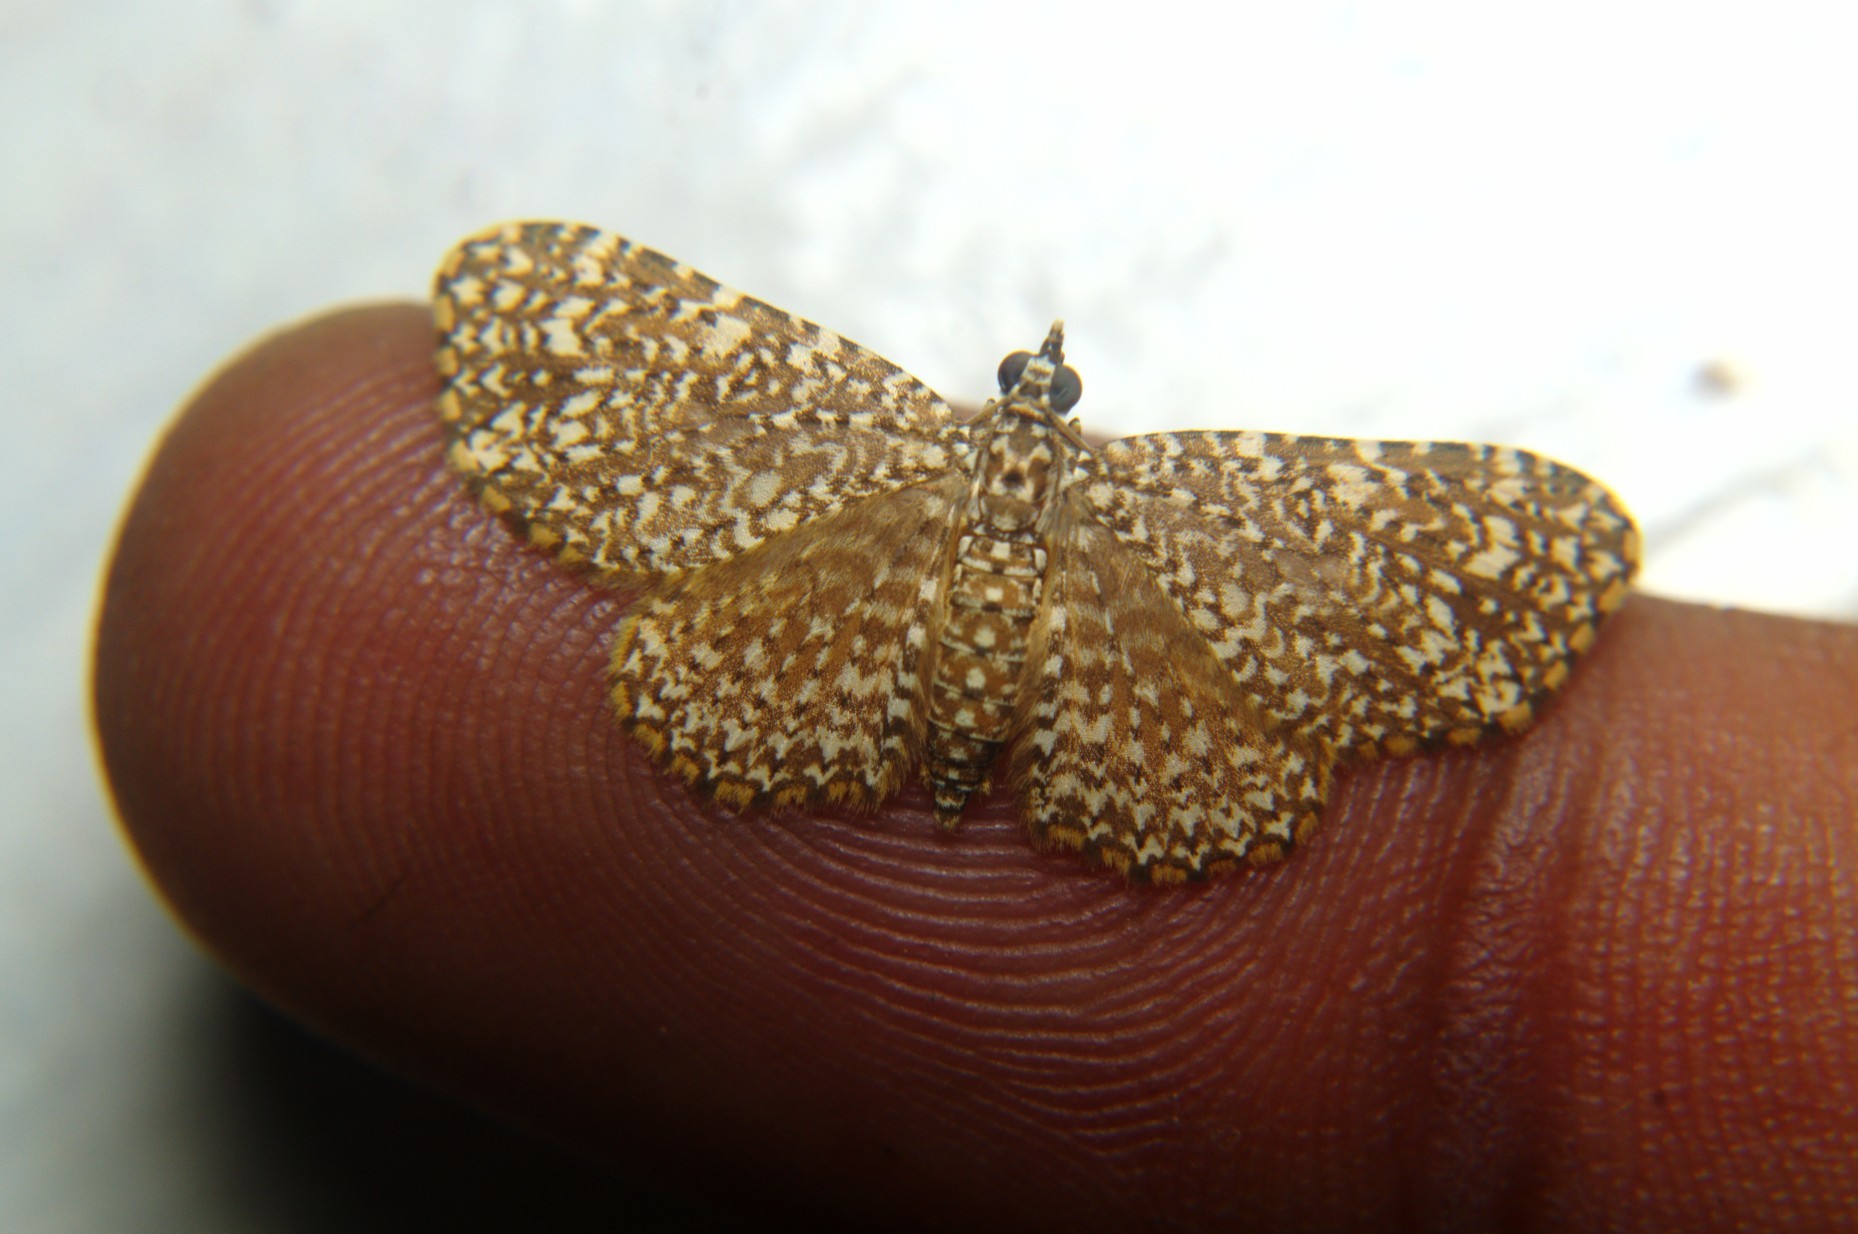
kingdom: Animalia
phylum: Arthropoda
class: Insecta
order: Lepidoptera
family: Geometridae
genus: Pomasia
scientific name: Pomasia denticlathrata
